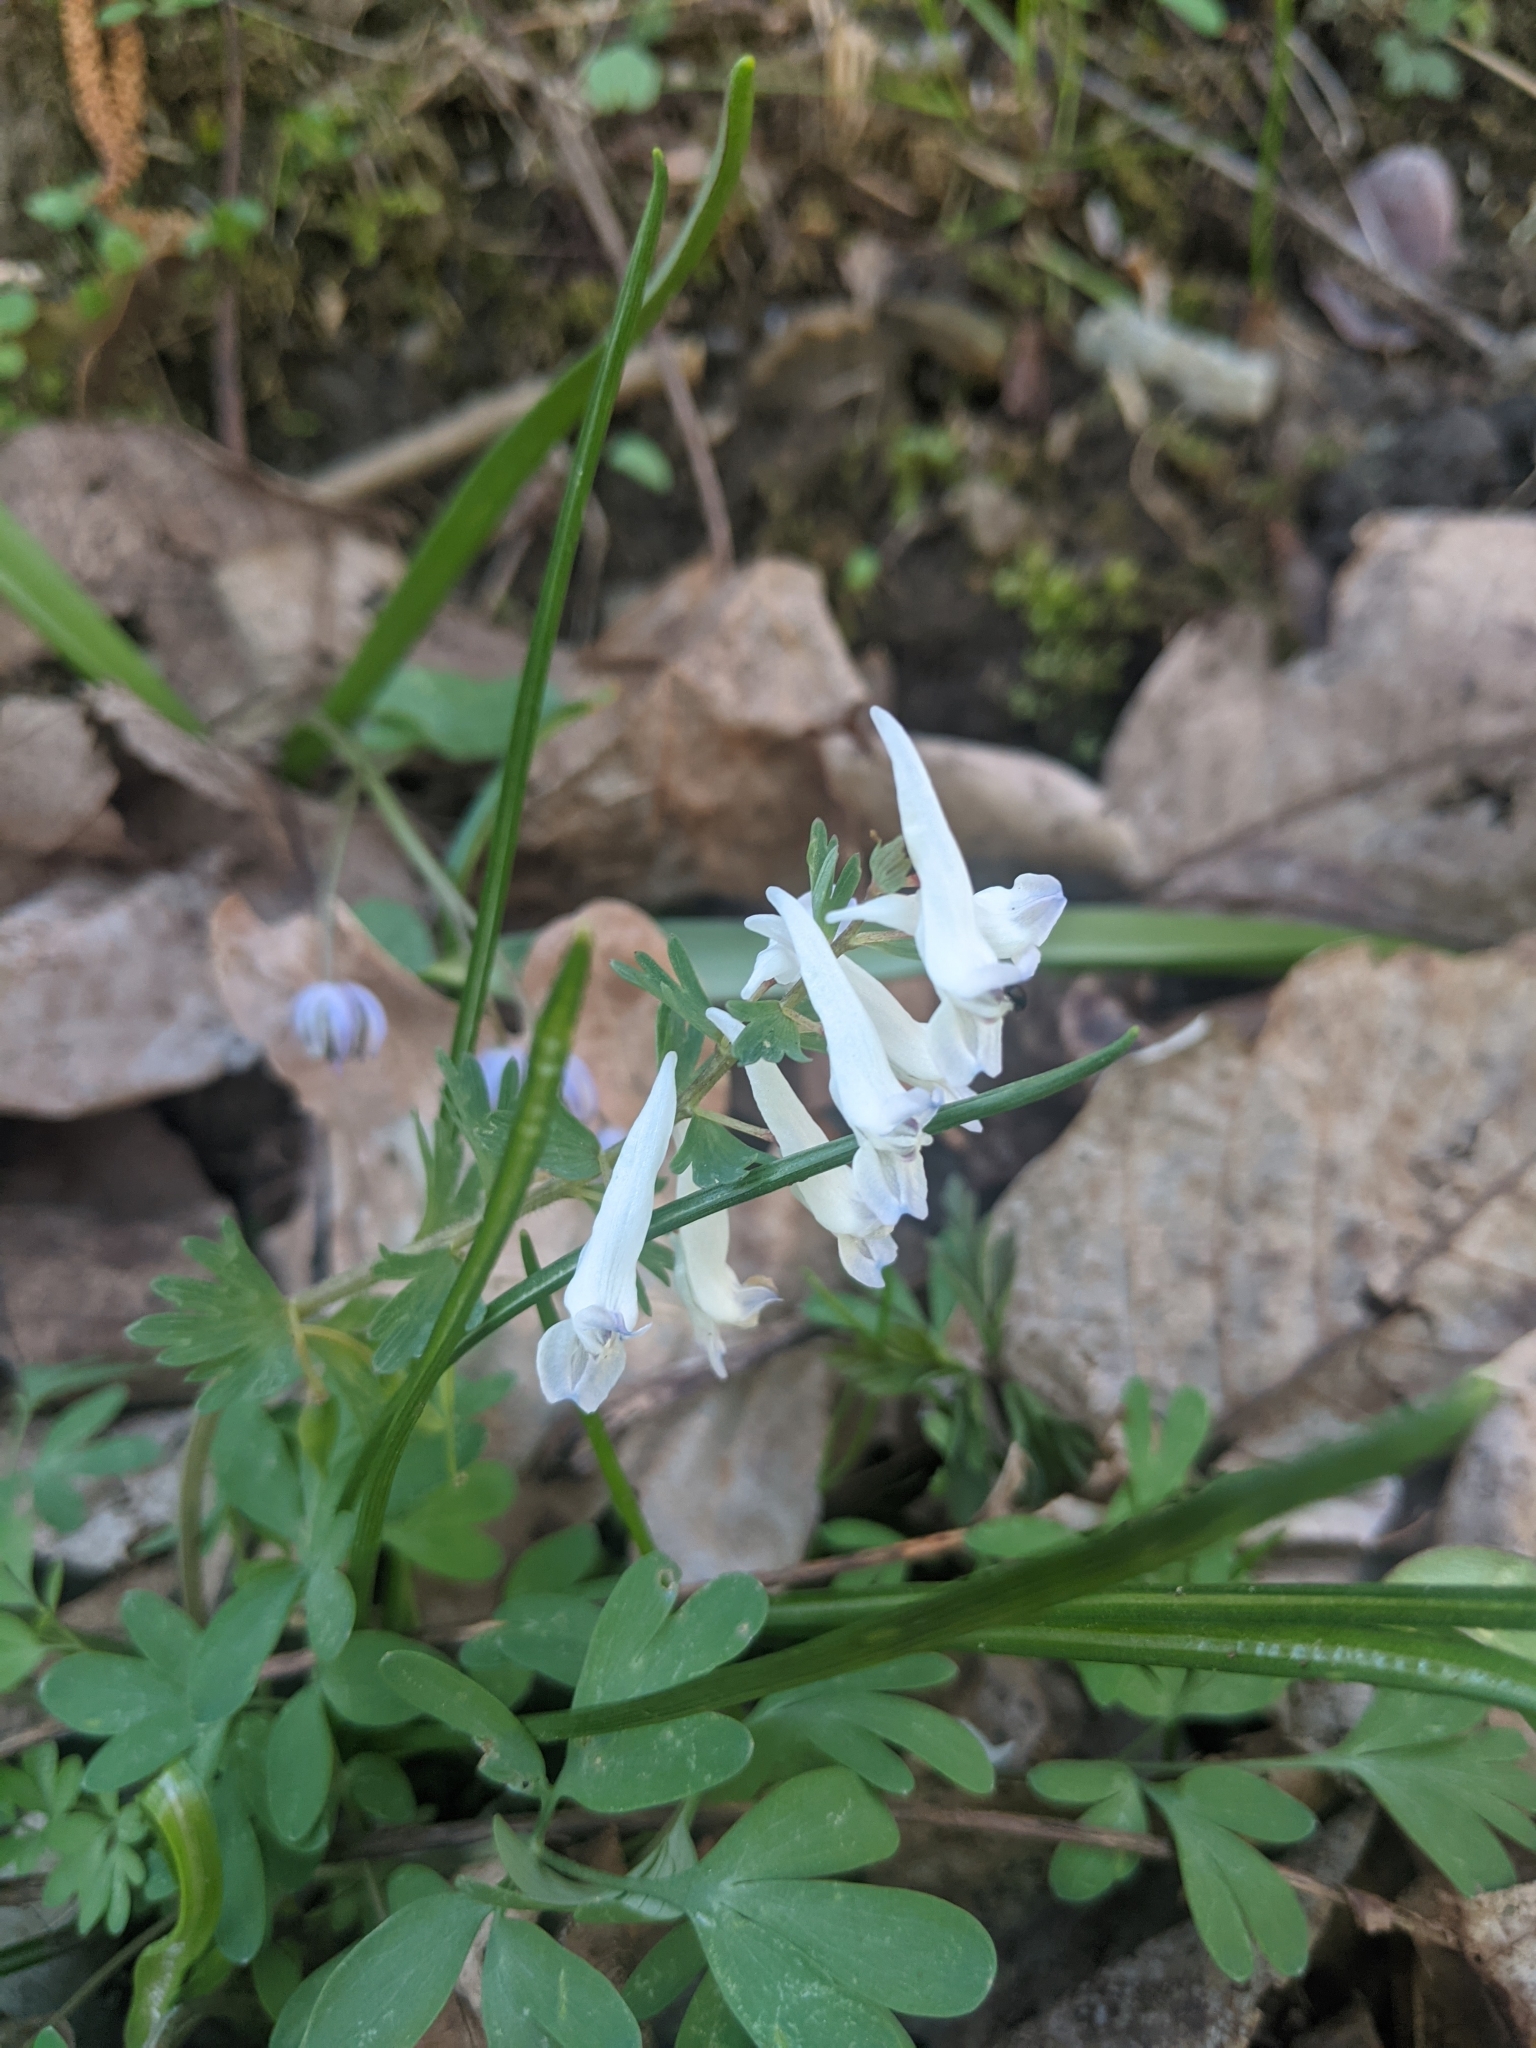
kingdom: Plantae
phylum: Tracheophyta
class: Magnoliopsida
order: Ranunculales
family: Papaveraceae
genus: Corydalis
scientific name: Corydalis solida
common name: Bird-in-a-bush
